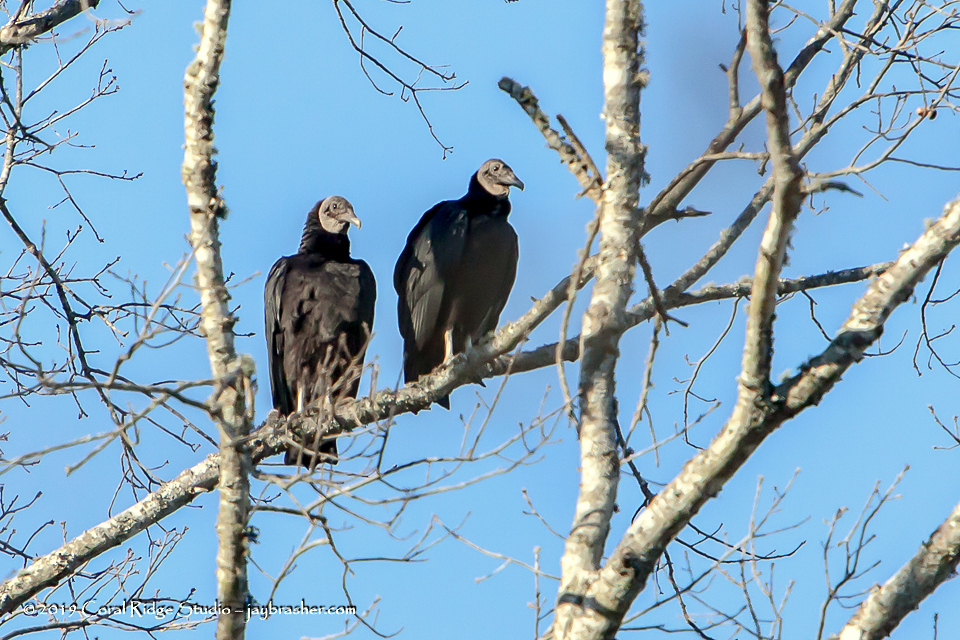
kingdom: Animalia
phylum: Chordata
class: Aves
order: Accipitriformes
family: Cathartidae
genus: Coragyps
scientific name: Coragyps atratus
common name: Black vulture
